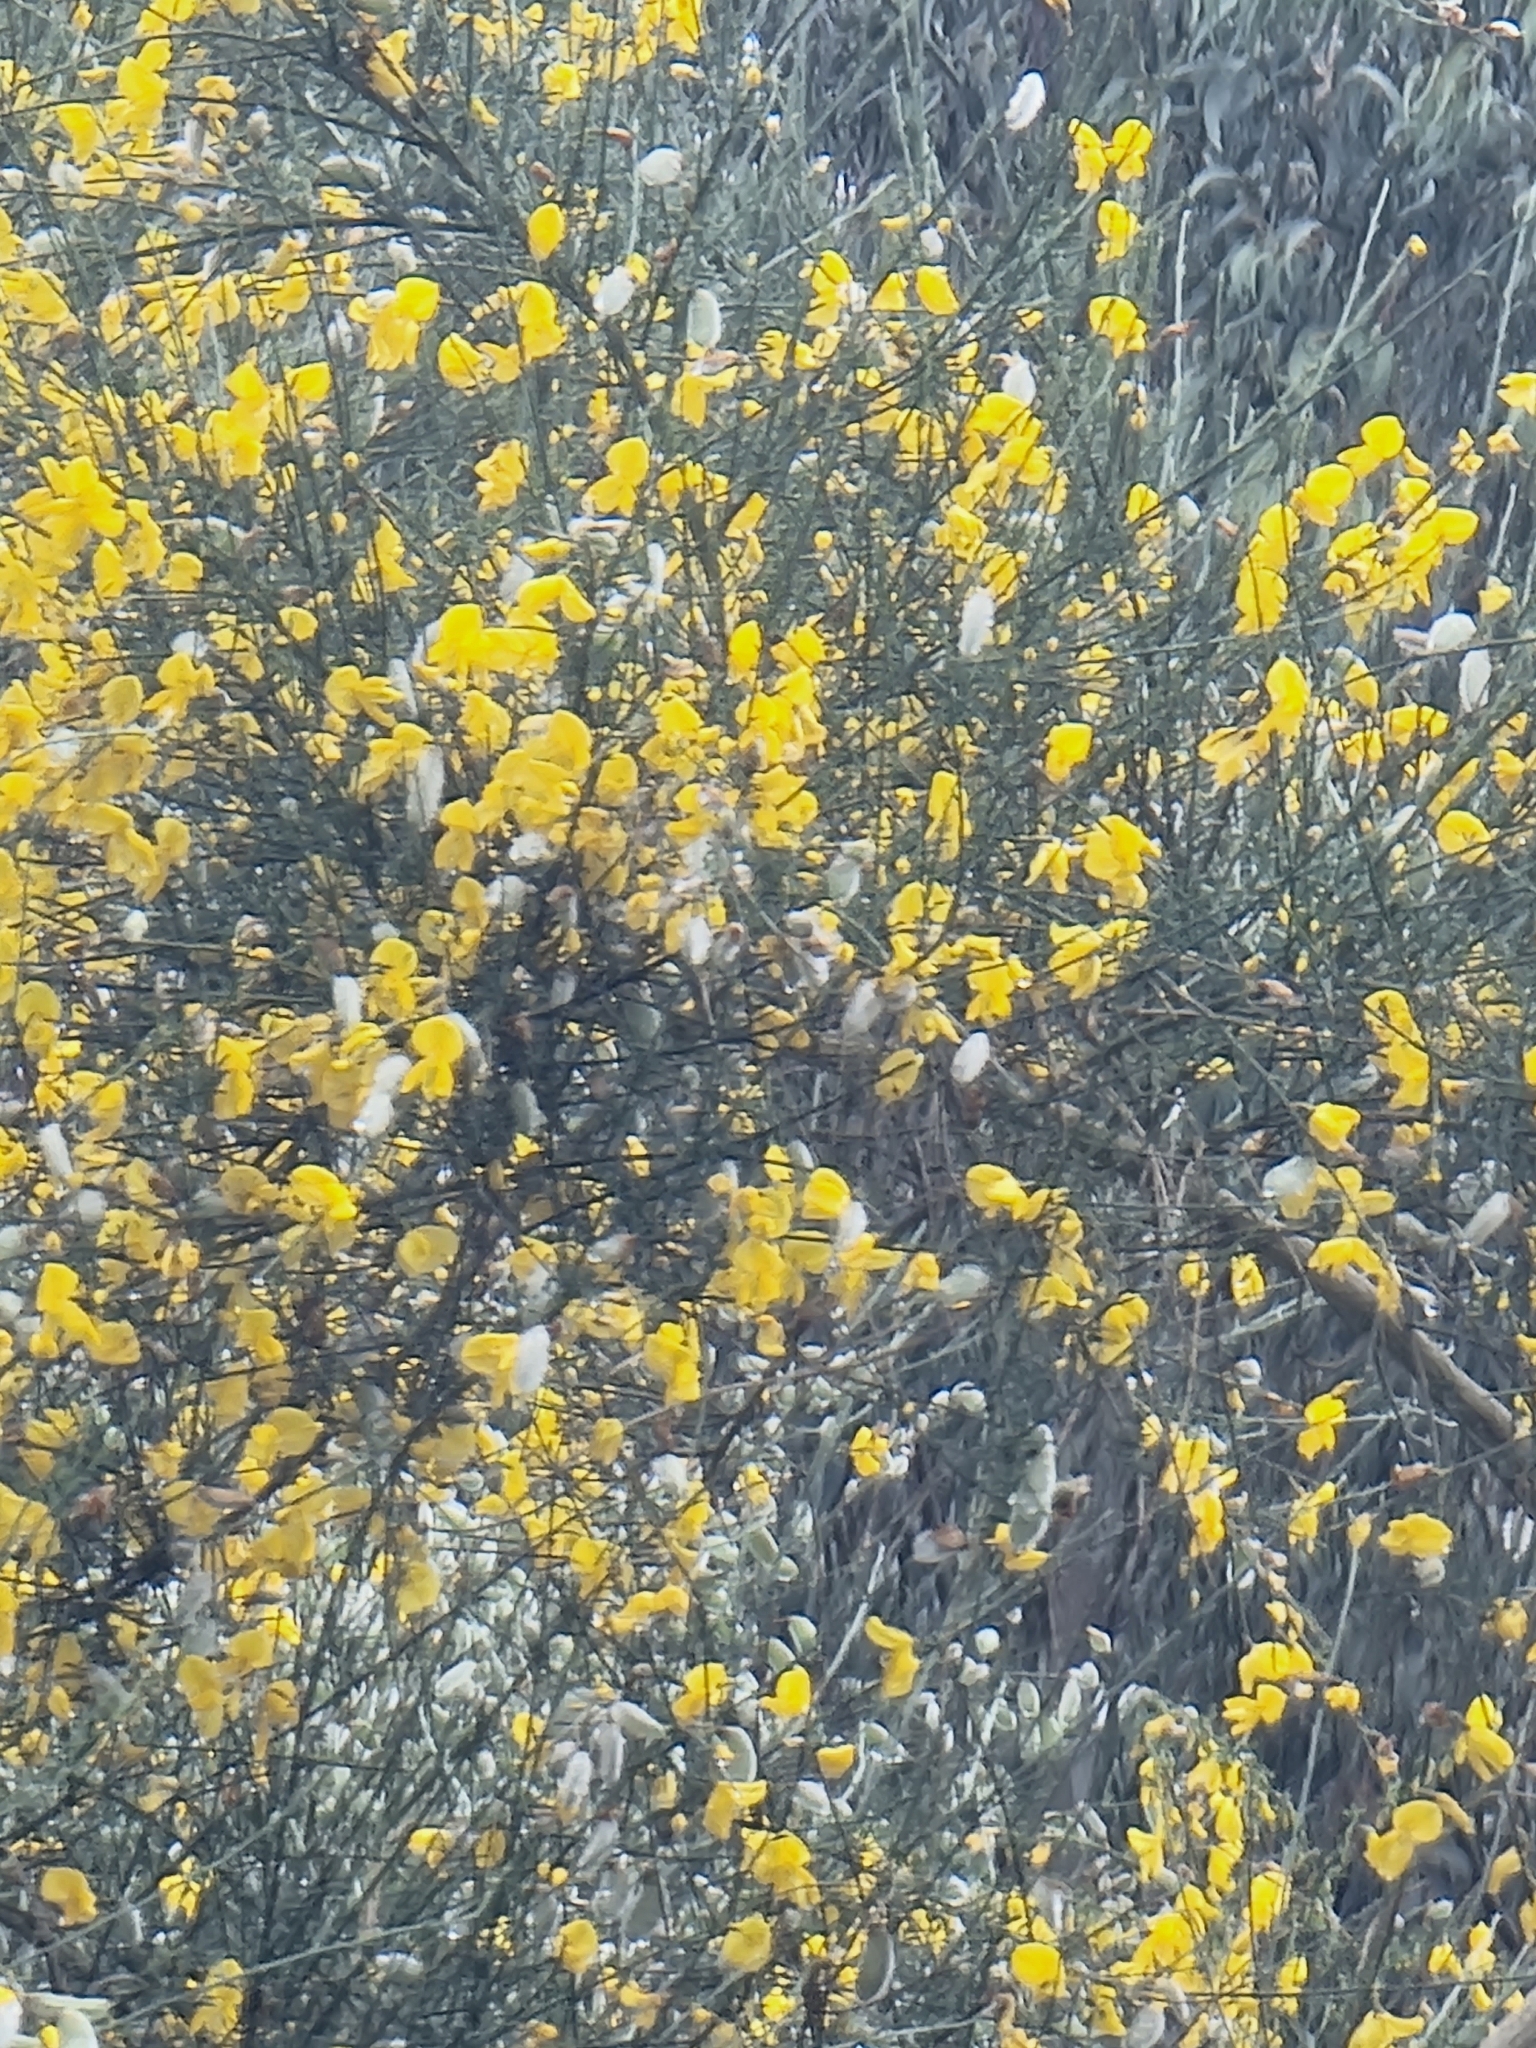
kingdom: Plantae
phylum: Tracheophyta
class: Magnoliopsida
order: Fabales
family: Fabaceae
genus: Cytisus
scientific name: Cytisus striatus
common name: Hairy-fruited broom
